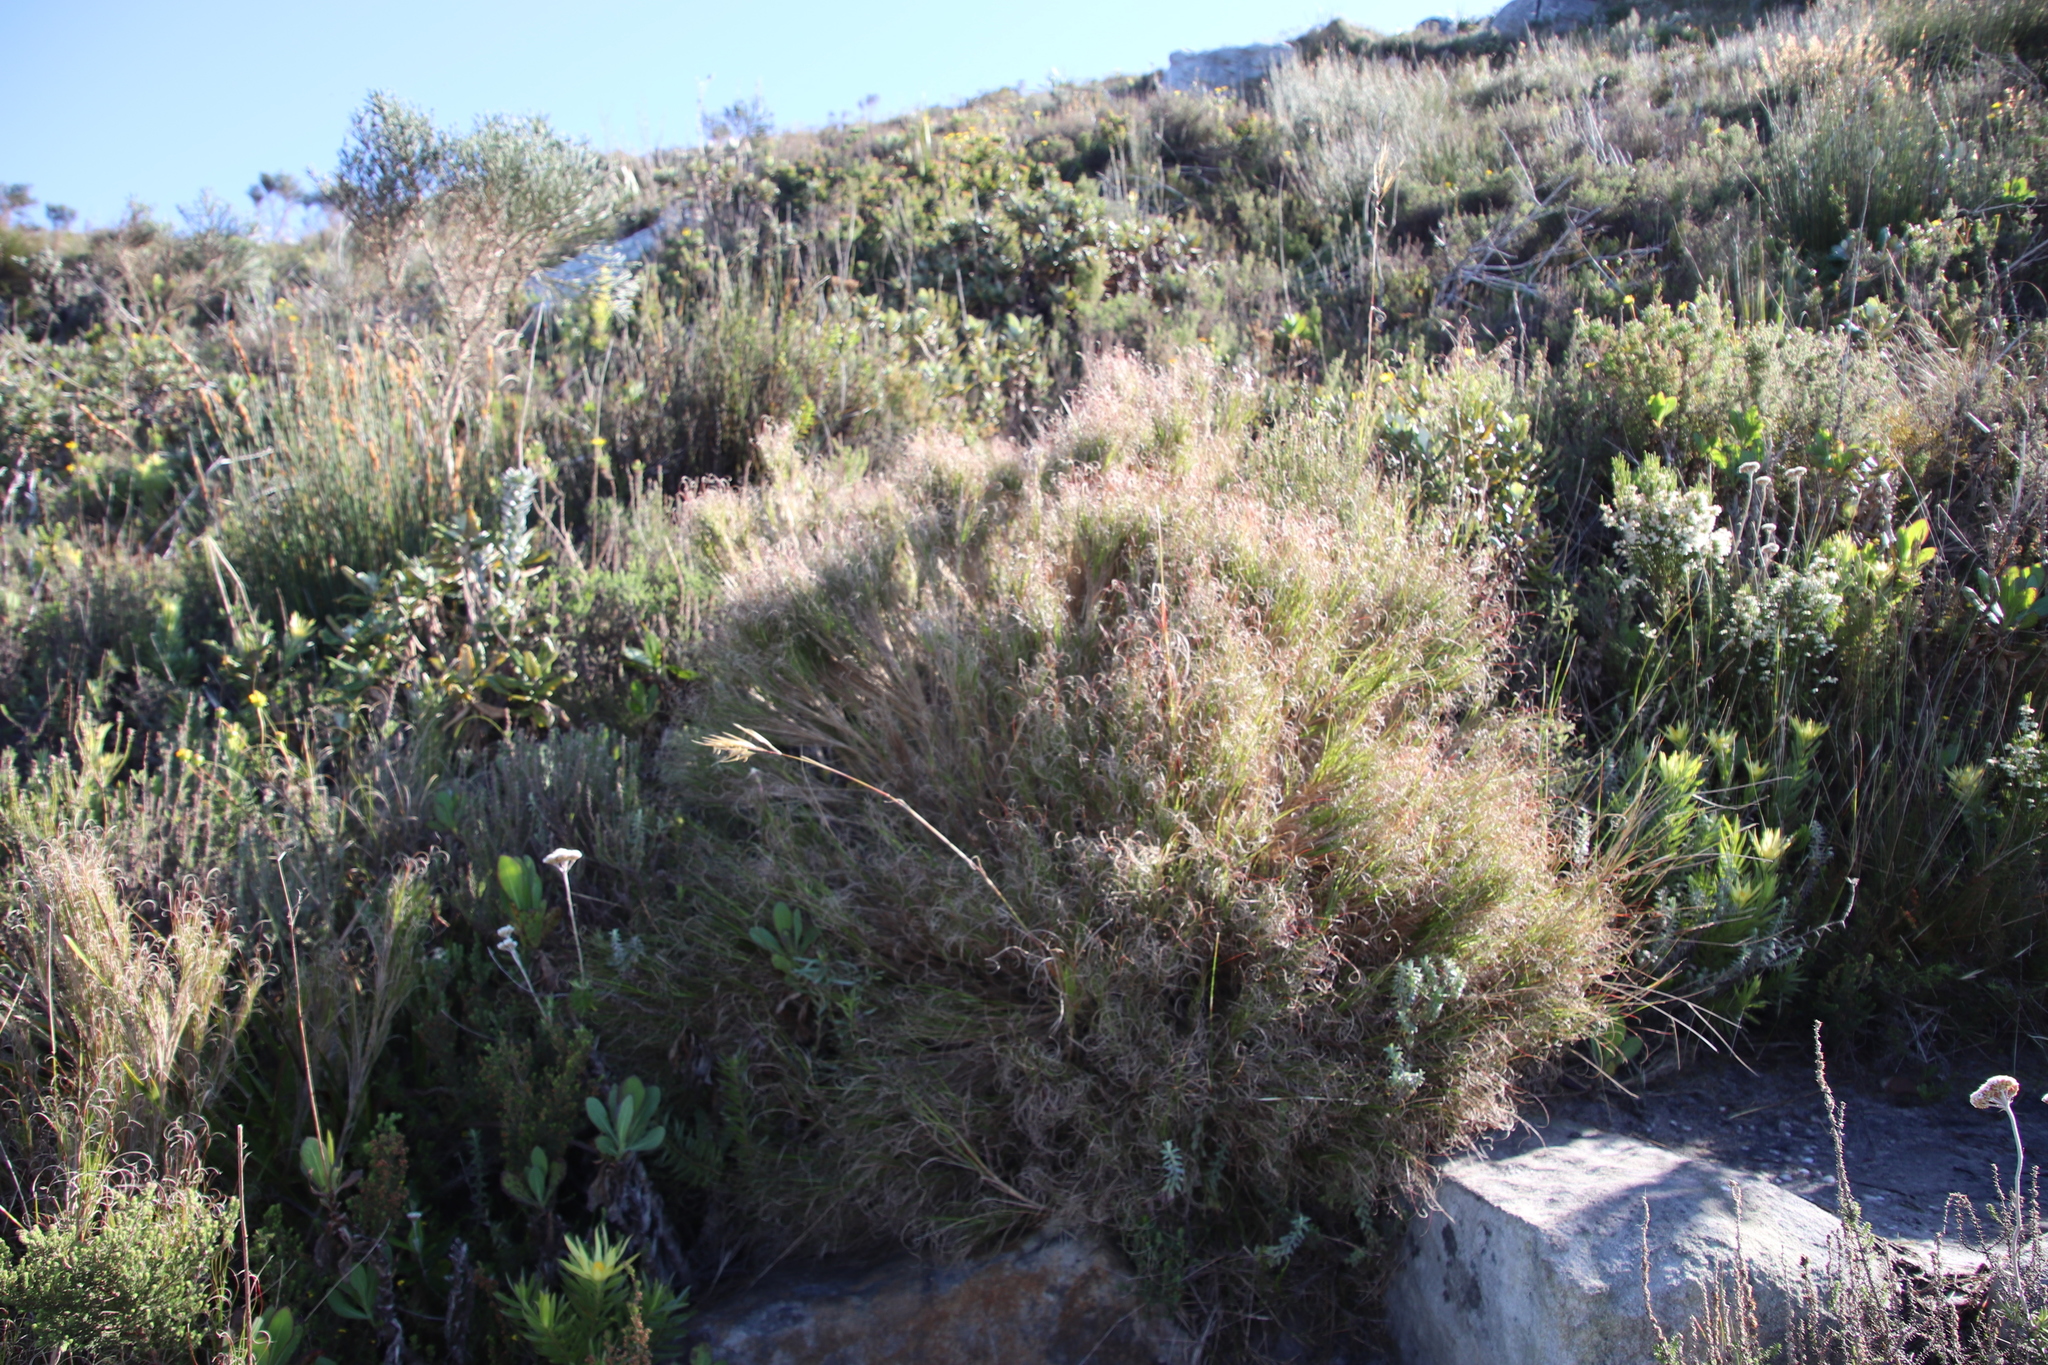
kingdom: Plantae
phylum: Tracheophyta
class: Liliopsida
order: Poales
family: Poaceae
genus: Pseudopentameris
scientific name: Pseudopentameris macrantha
